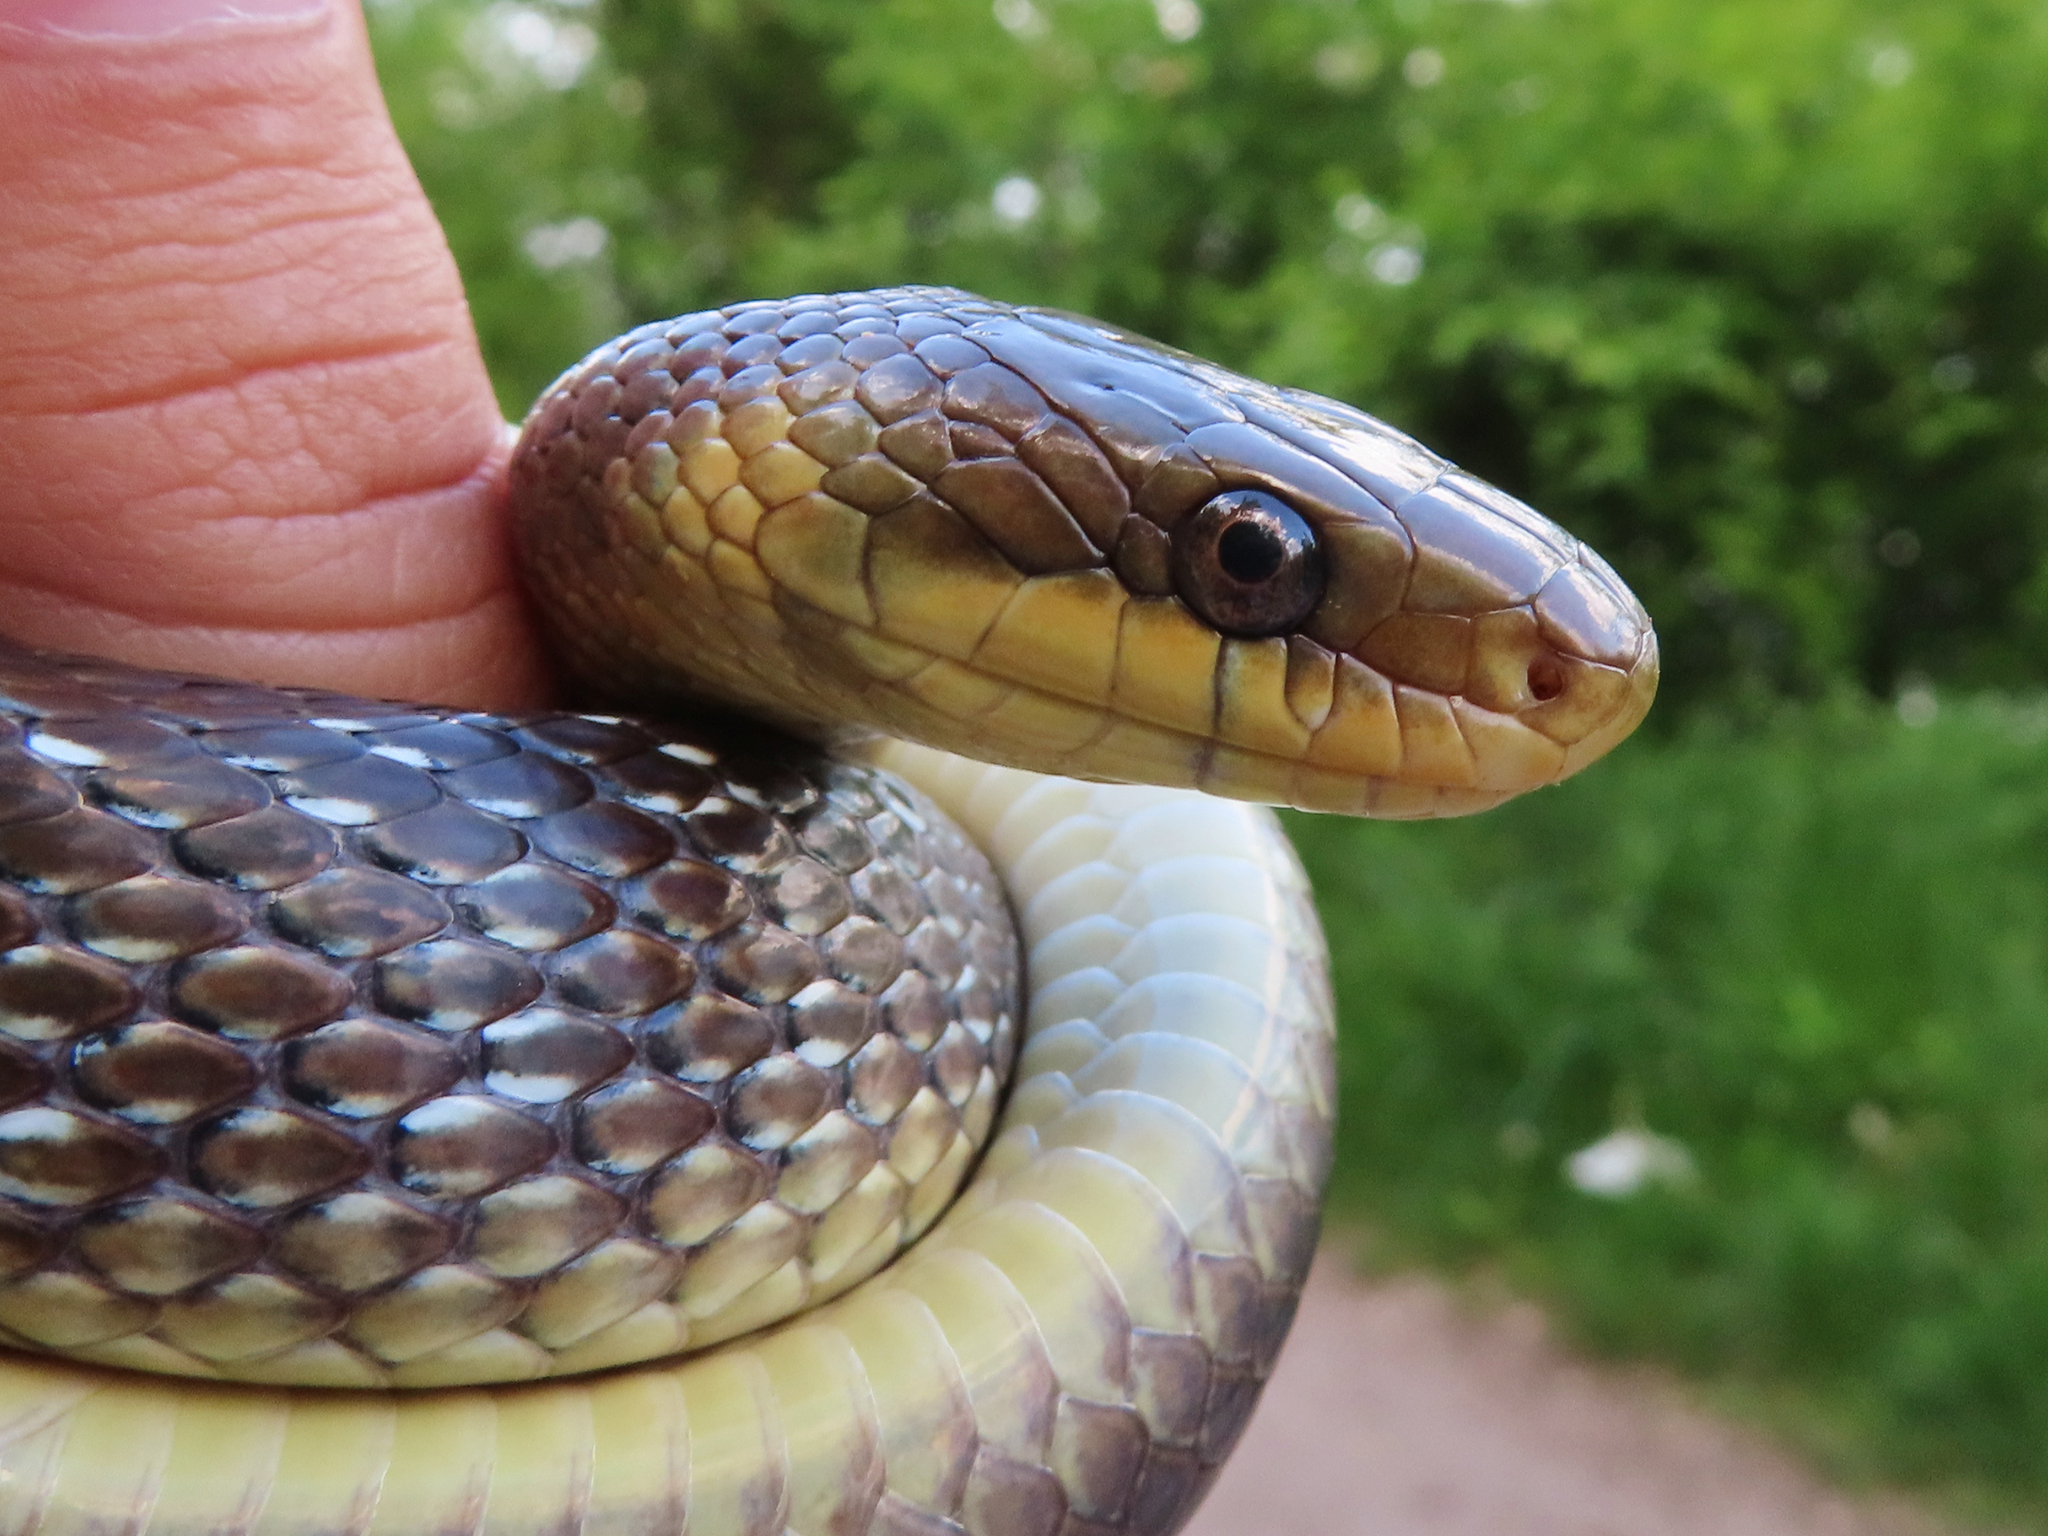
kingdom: Animalia
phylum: Chordata
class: Squamata
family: Colubridae
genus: Zamenis
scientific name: Zamenis longissimus
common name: Aesculapean snake
